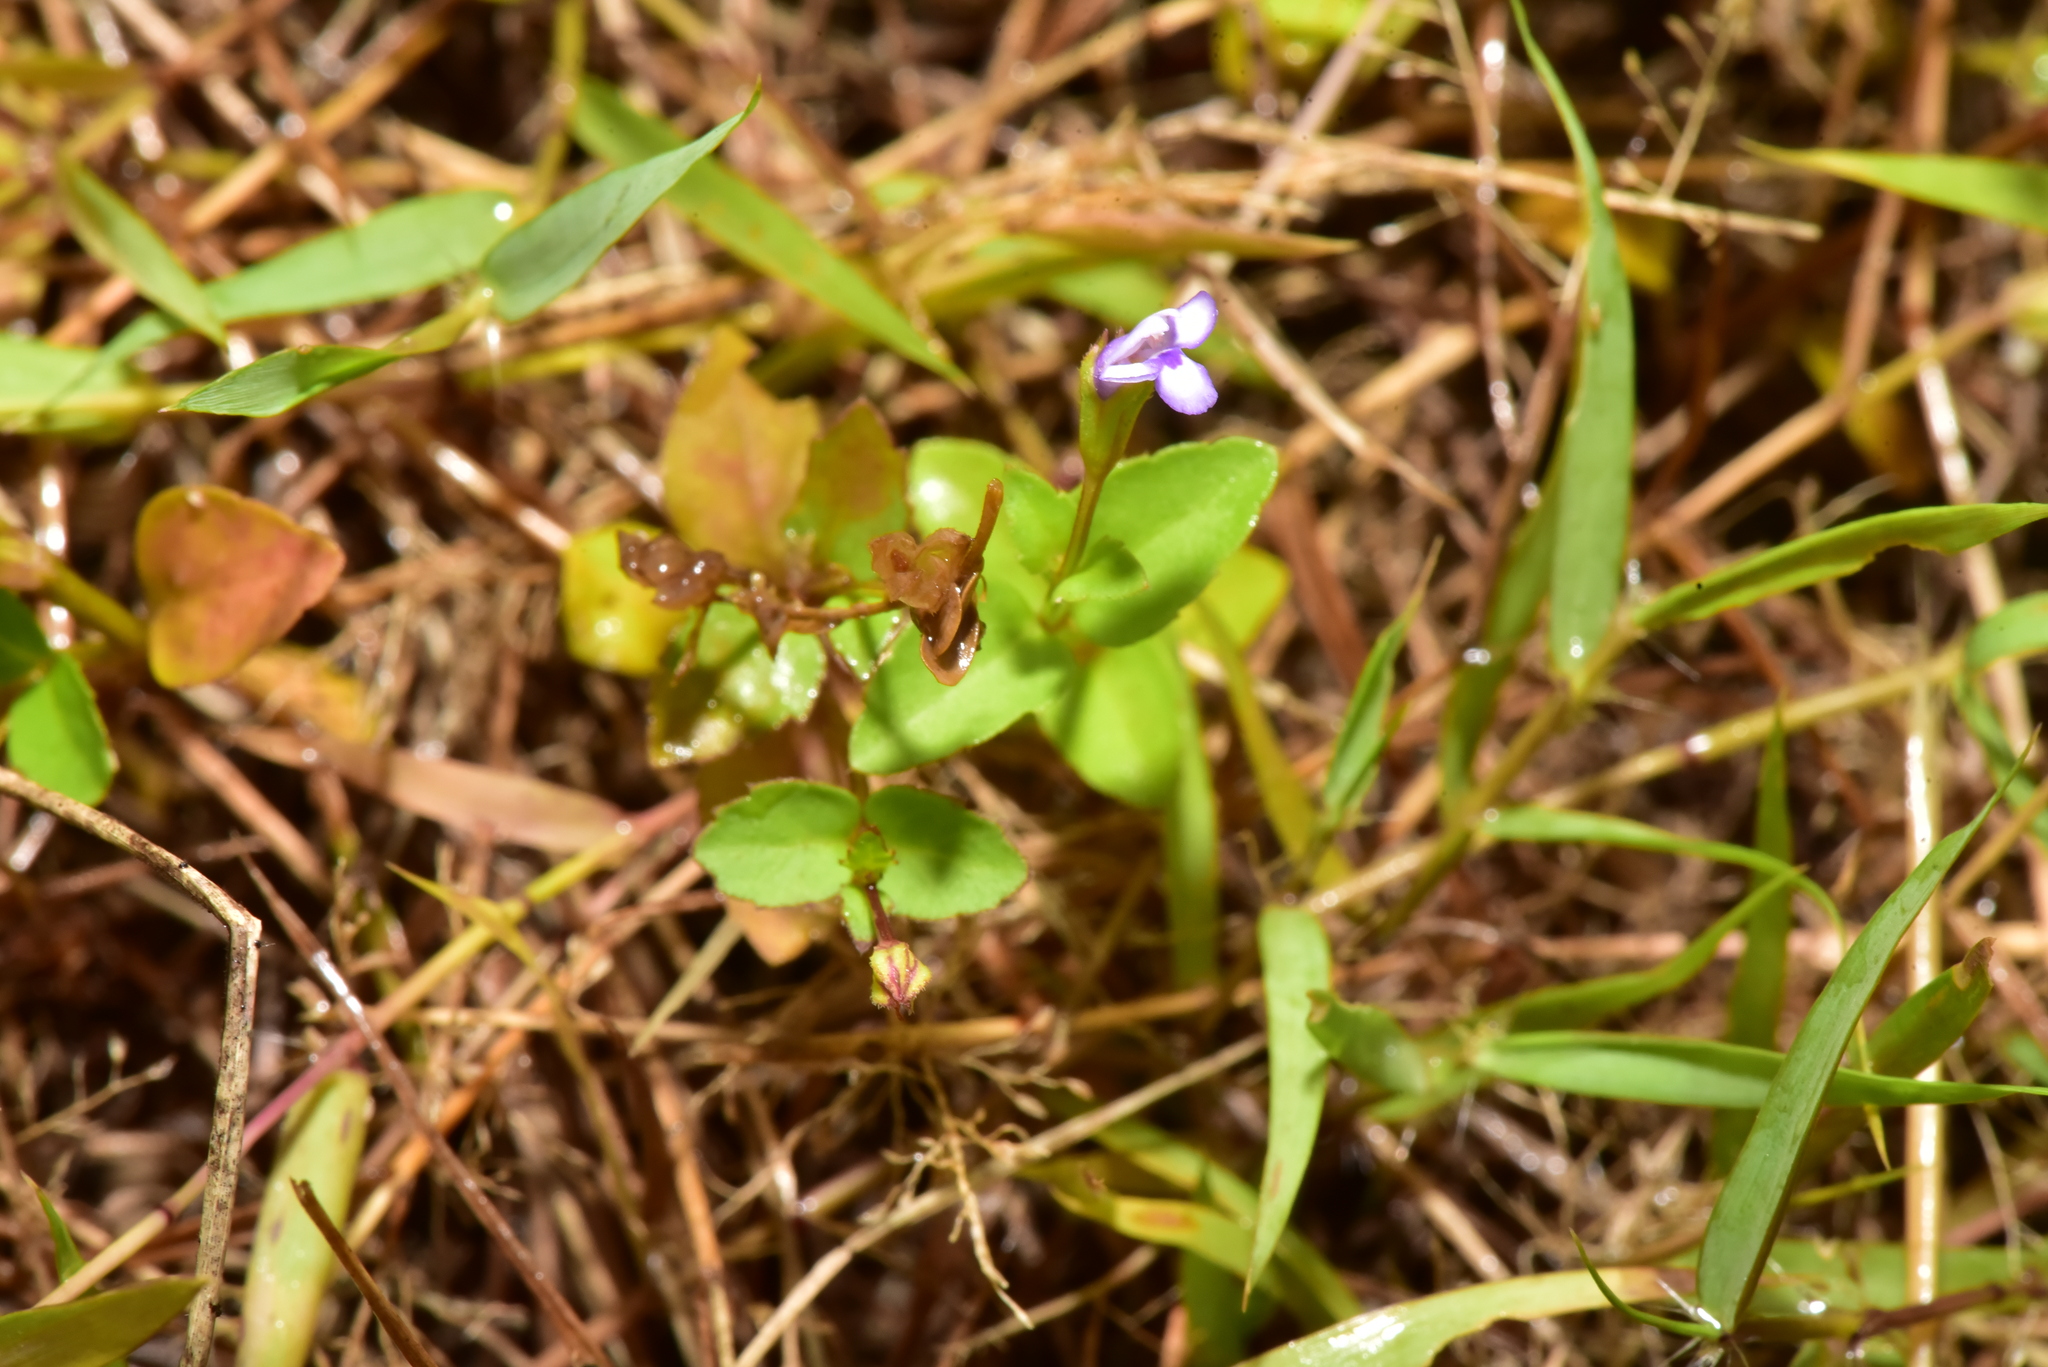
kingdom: Plantae
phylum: Tracheophyta
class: Magnoliopsida
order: Lamiales
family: Linderniaceae
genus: Torenia
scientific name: Torenia crustacea
